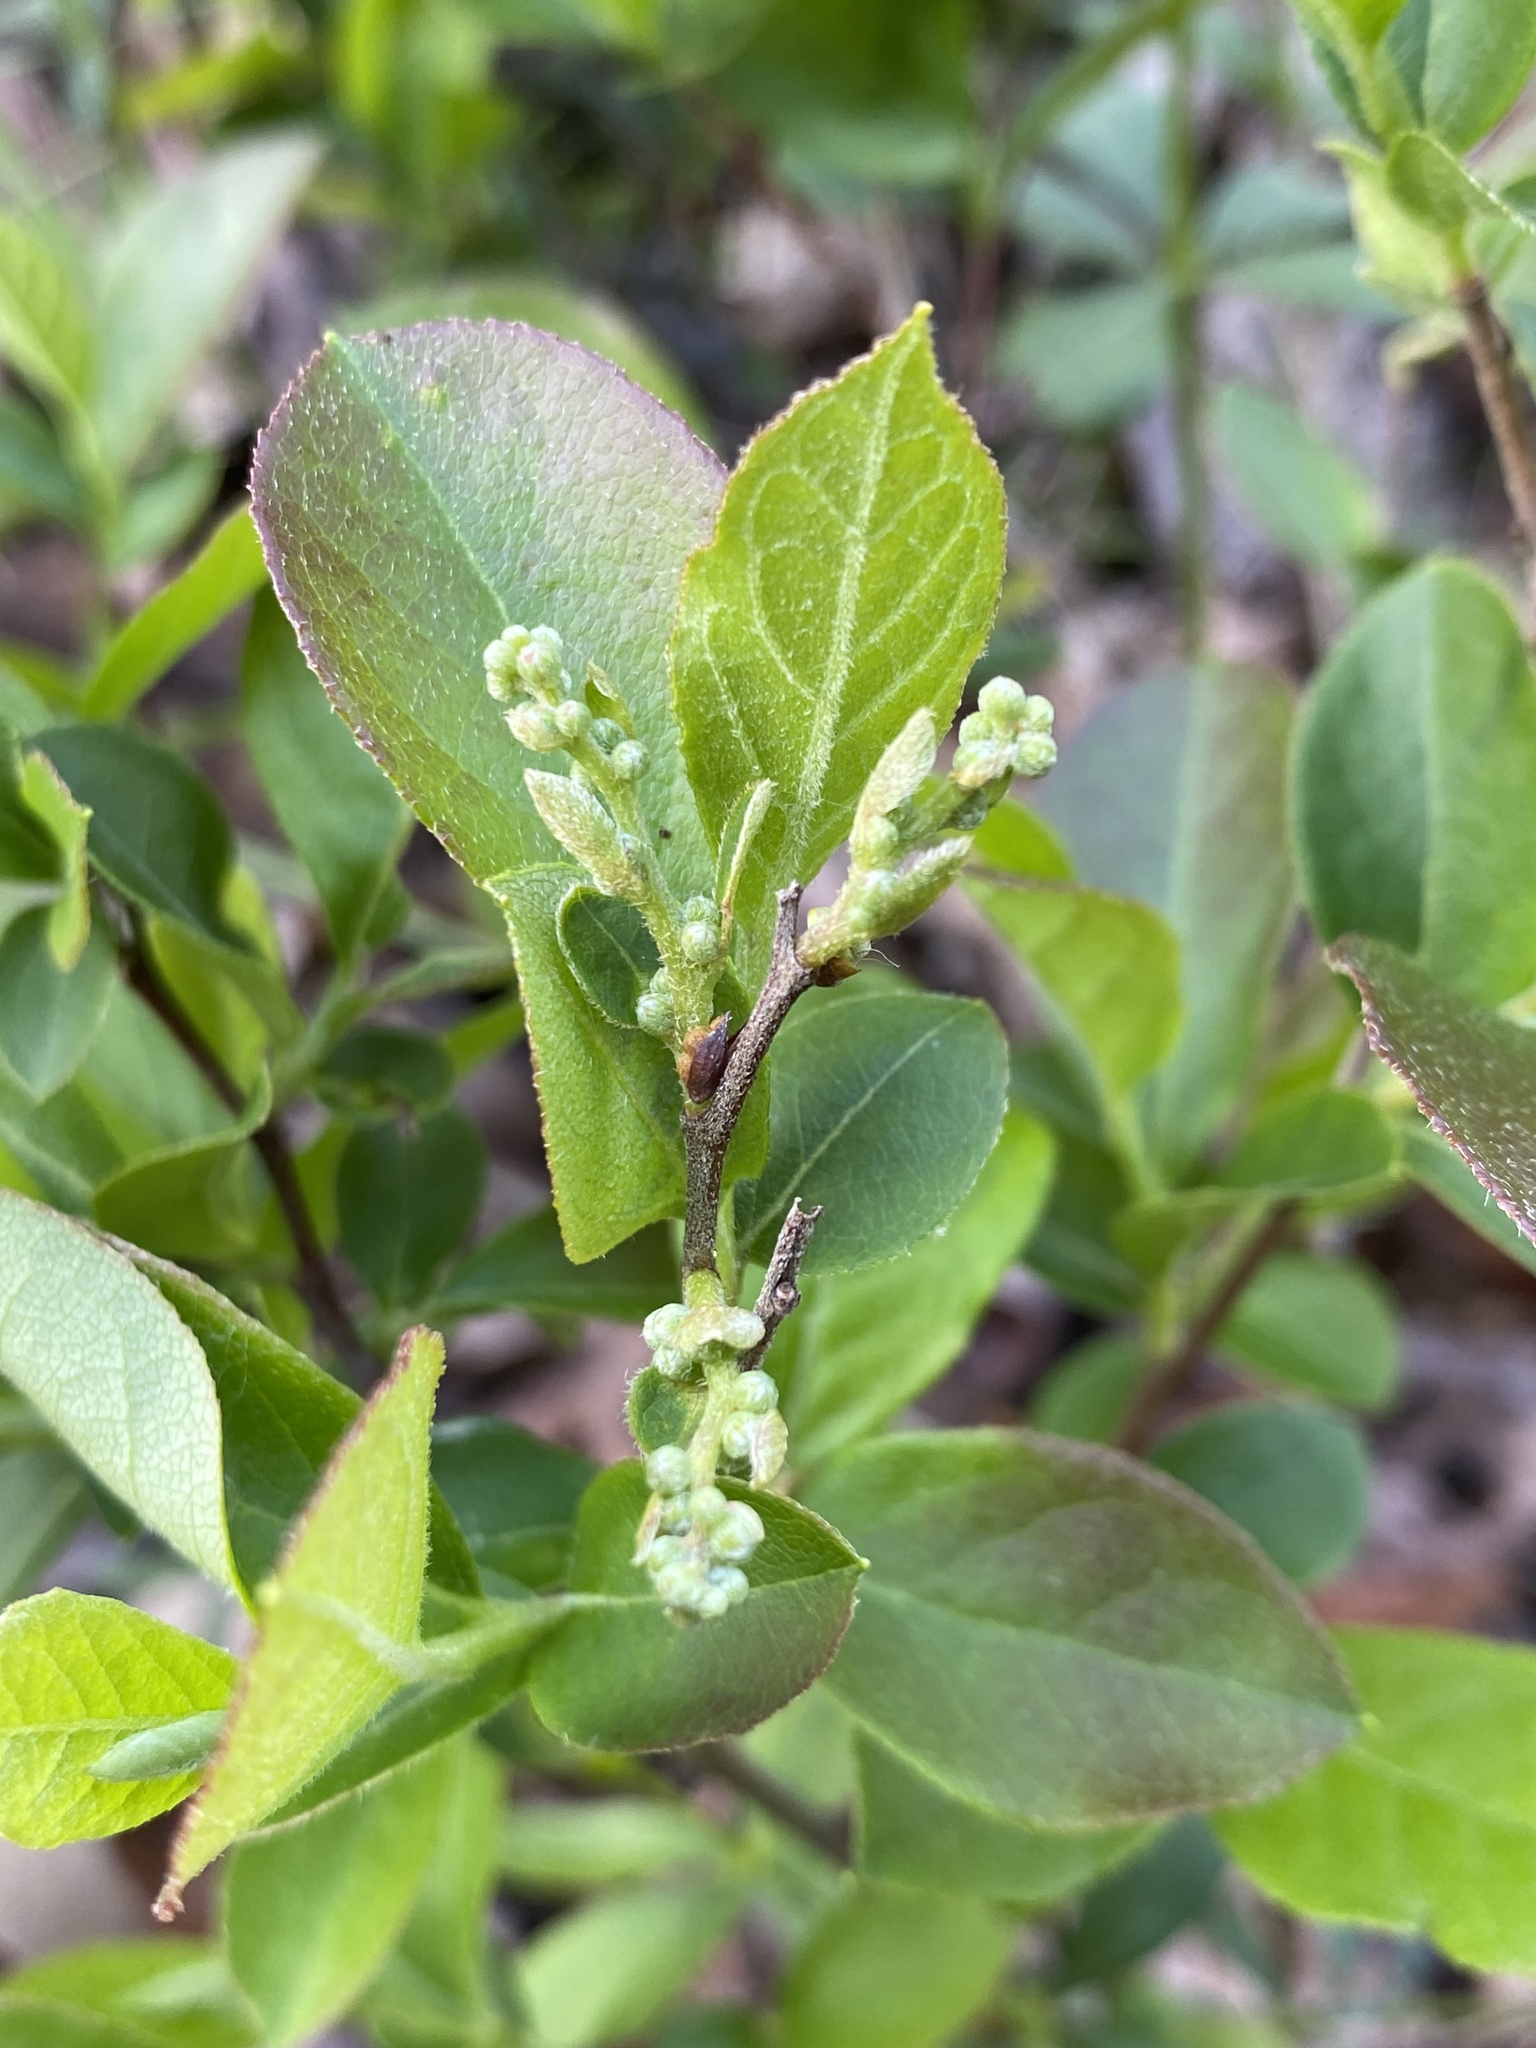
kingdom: Plantae
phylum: Tracheophyta
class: Magnoliopsida
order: Ericales
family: Ericaceae
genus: Lyonia
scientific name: Lyonia ligustrina
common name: Maleberry
